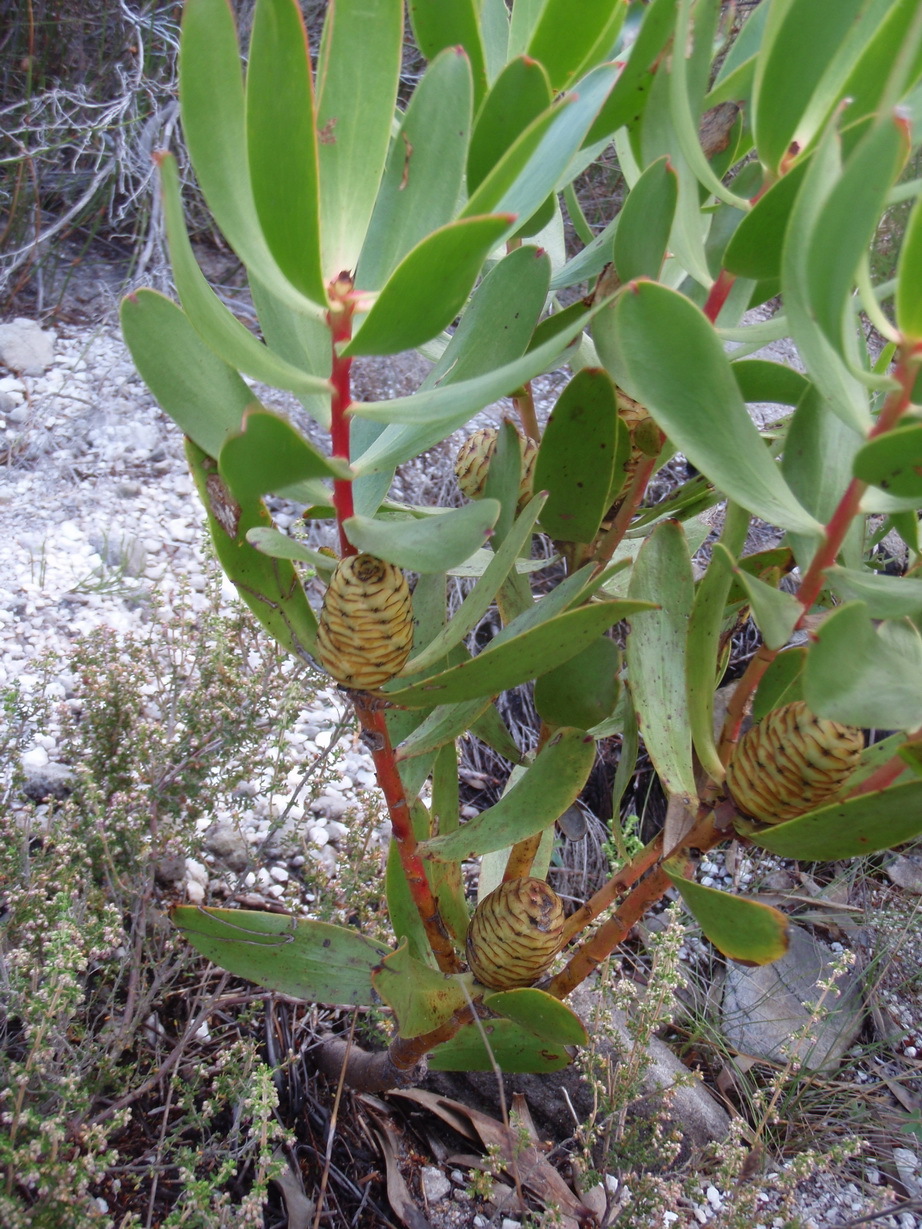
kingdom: Plantae
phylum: Tracheophyta
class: Magnoliopsida
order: Proteales
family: Proteaceae
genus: Leucadendron
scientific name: Leucadendron gandogeri
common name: Broad-leaf conebush
